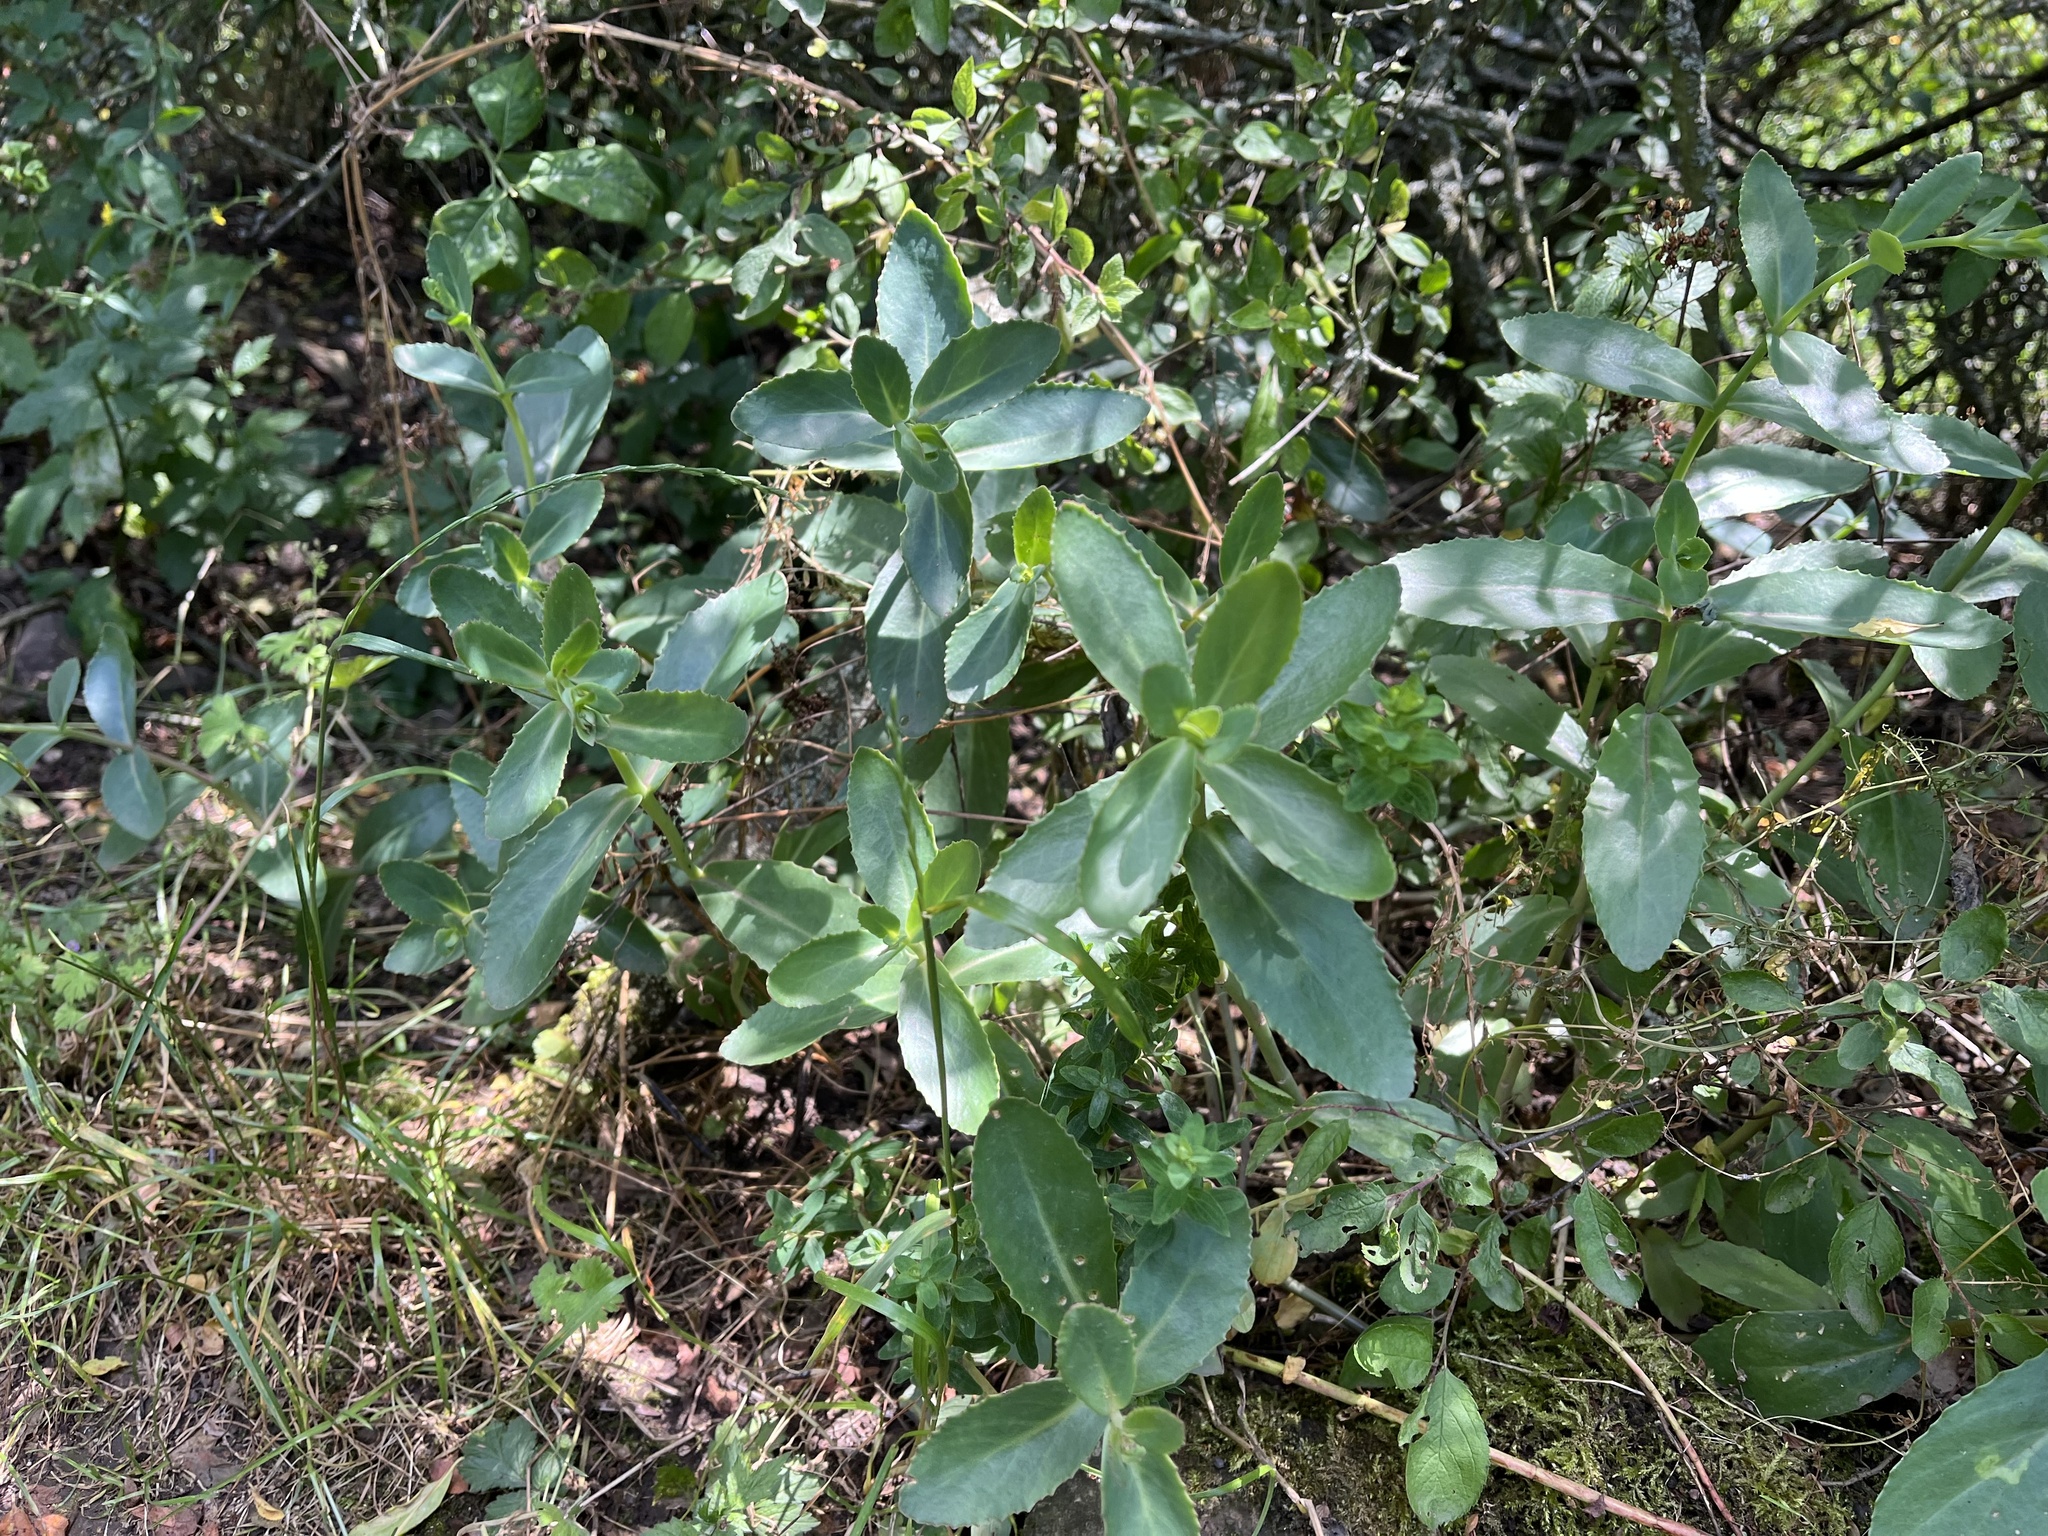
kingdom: Plantae
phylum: Tracheophyta
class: Magnoliopsida
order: Saxifragales
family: Crassulaceae
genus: Hylotelephium
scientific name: Hylotelephium maximum
